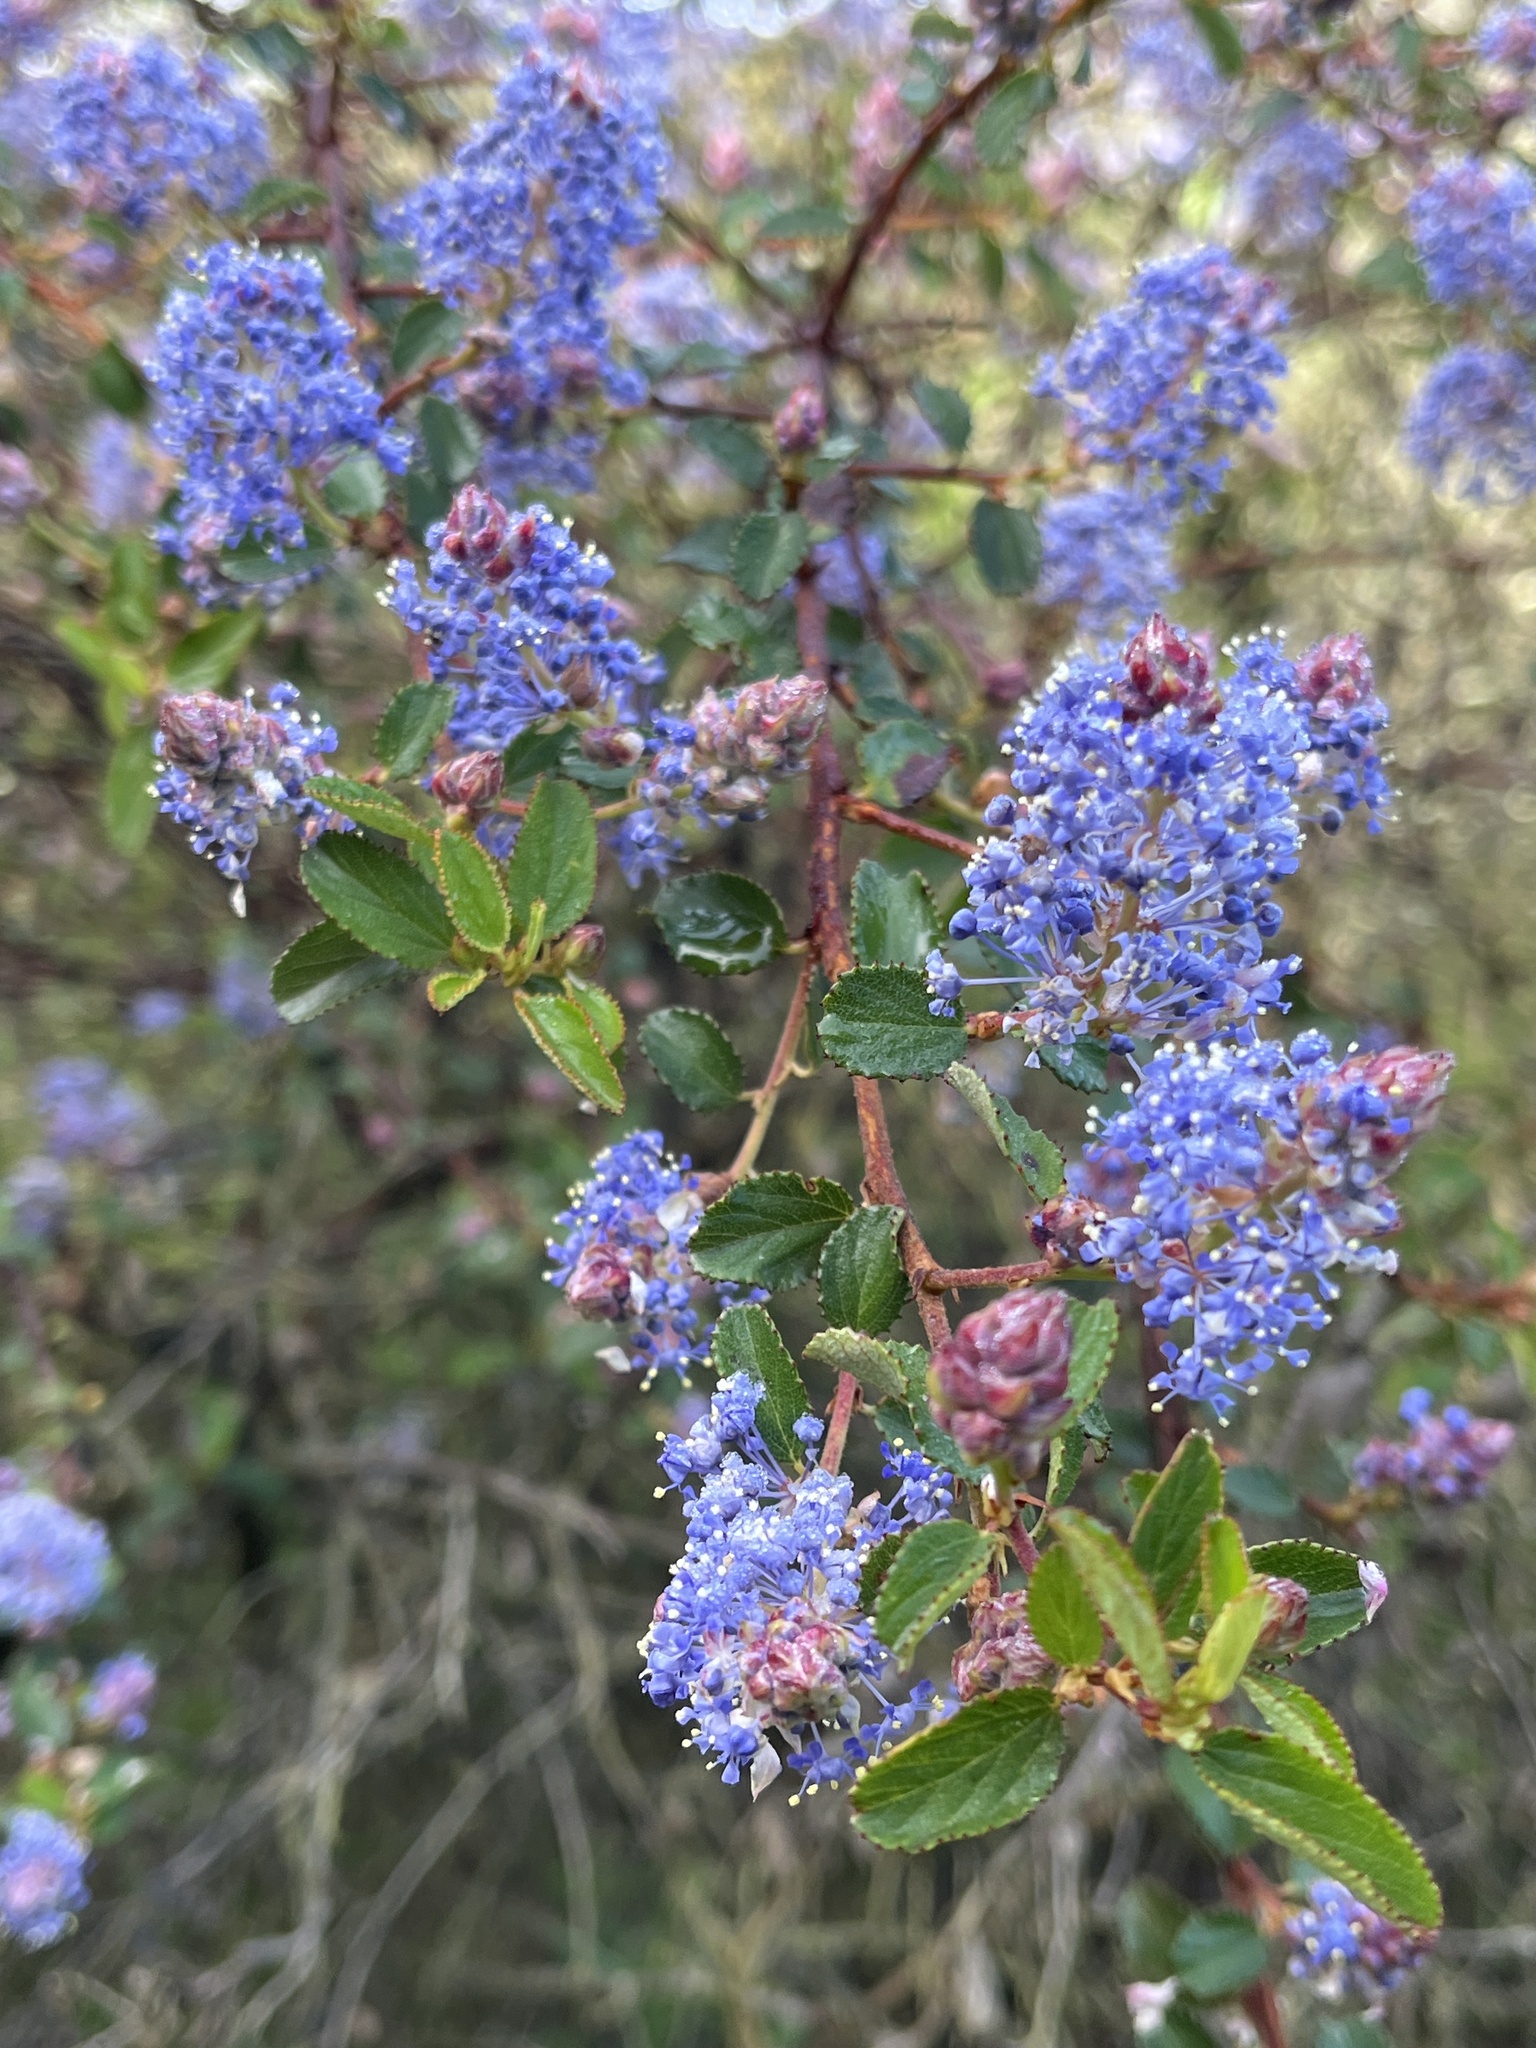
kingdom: Plantae
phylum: Tracheophyta
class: Magnoliopsida
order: Rosales
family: Rhamnaceae
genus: Ceanothus
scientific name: Ceanothus tomentosus
